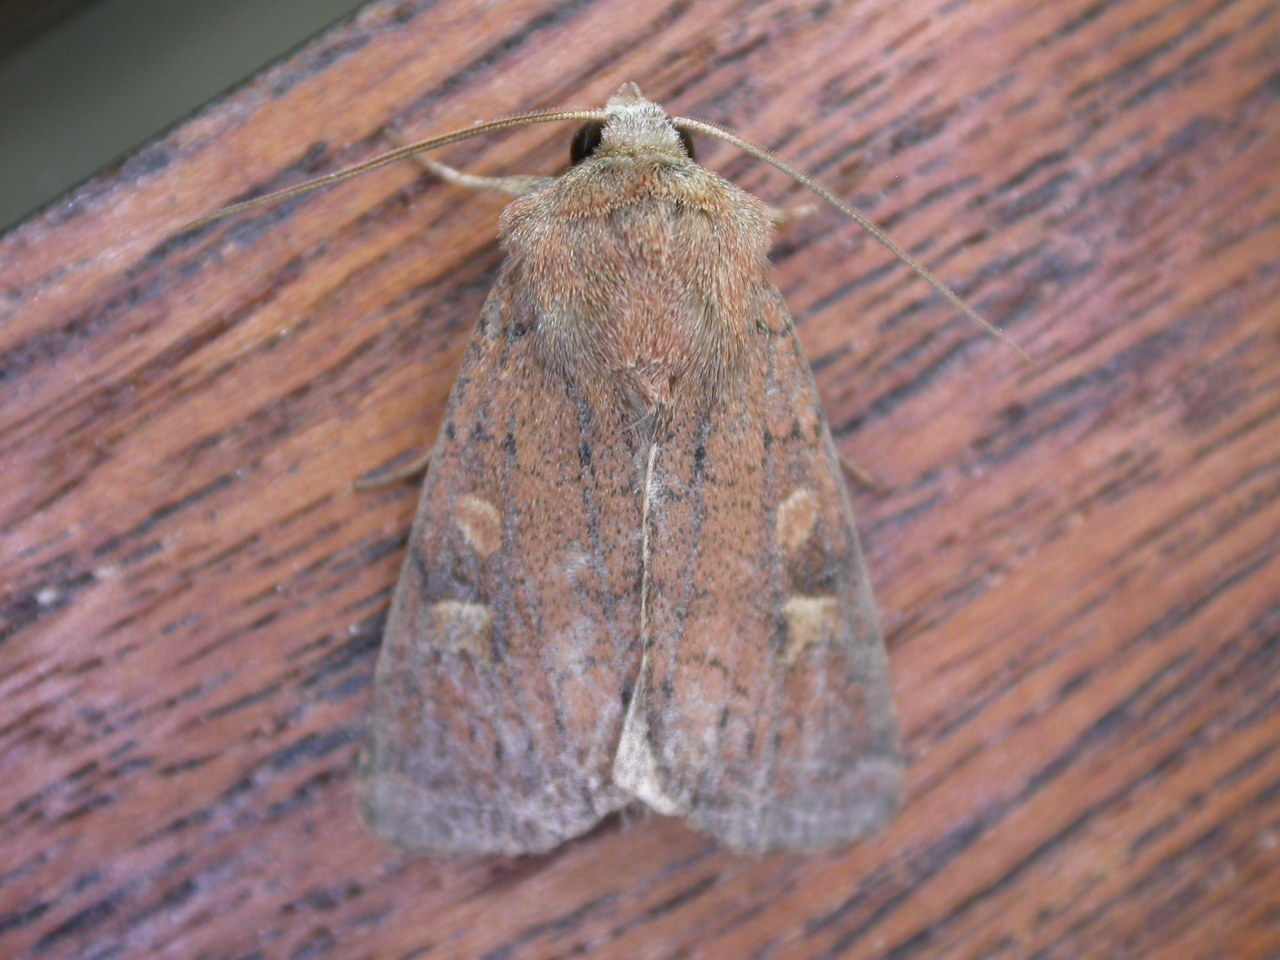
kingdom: Animalia
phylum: Arthropoda
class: Insecta
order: Lepidoptera
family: Noctuidae
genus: Xestia
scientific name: Xestia xanthographa
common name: Square-spot rustic
